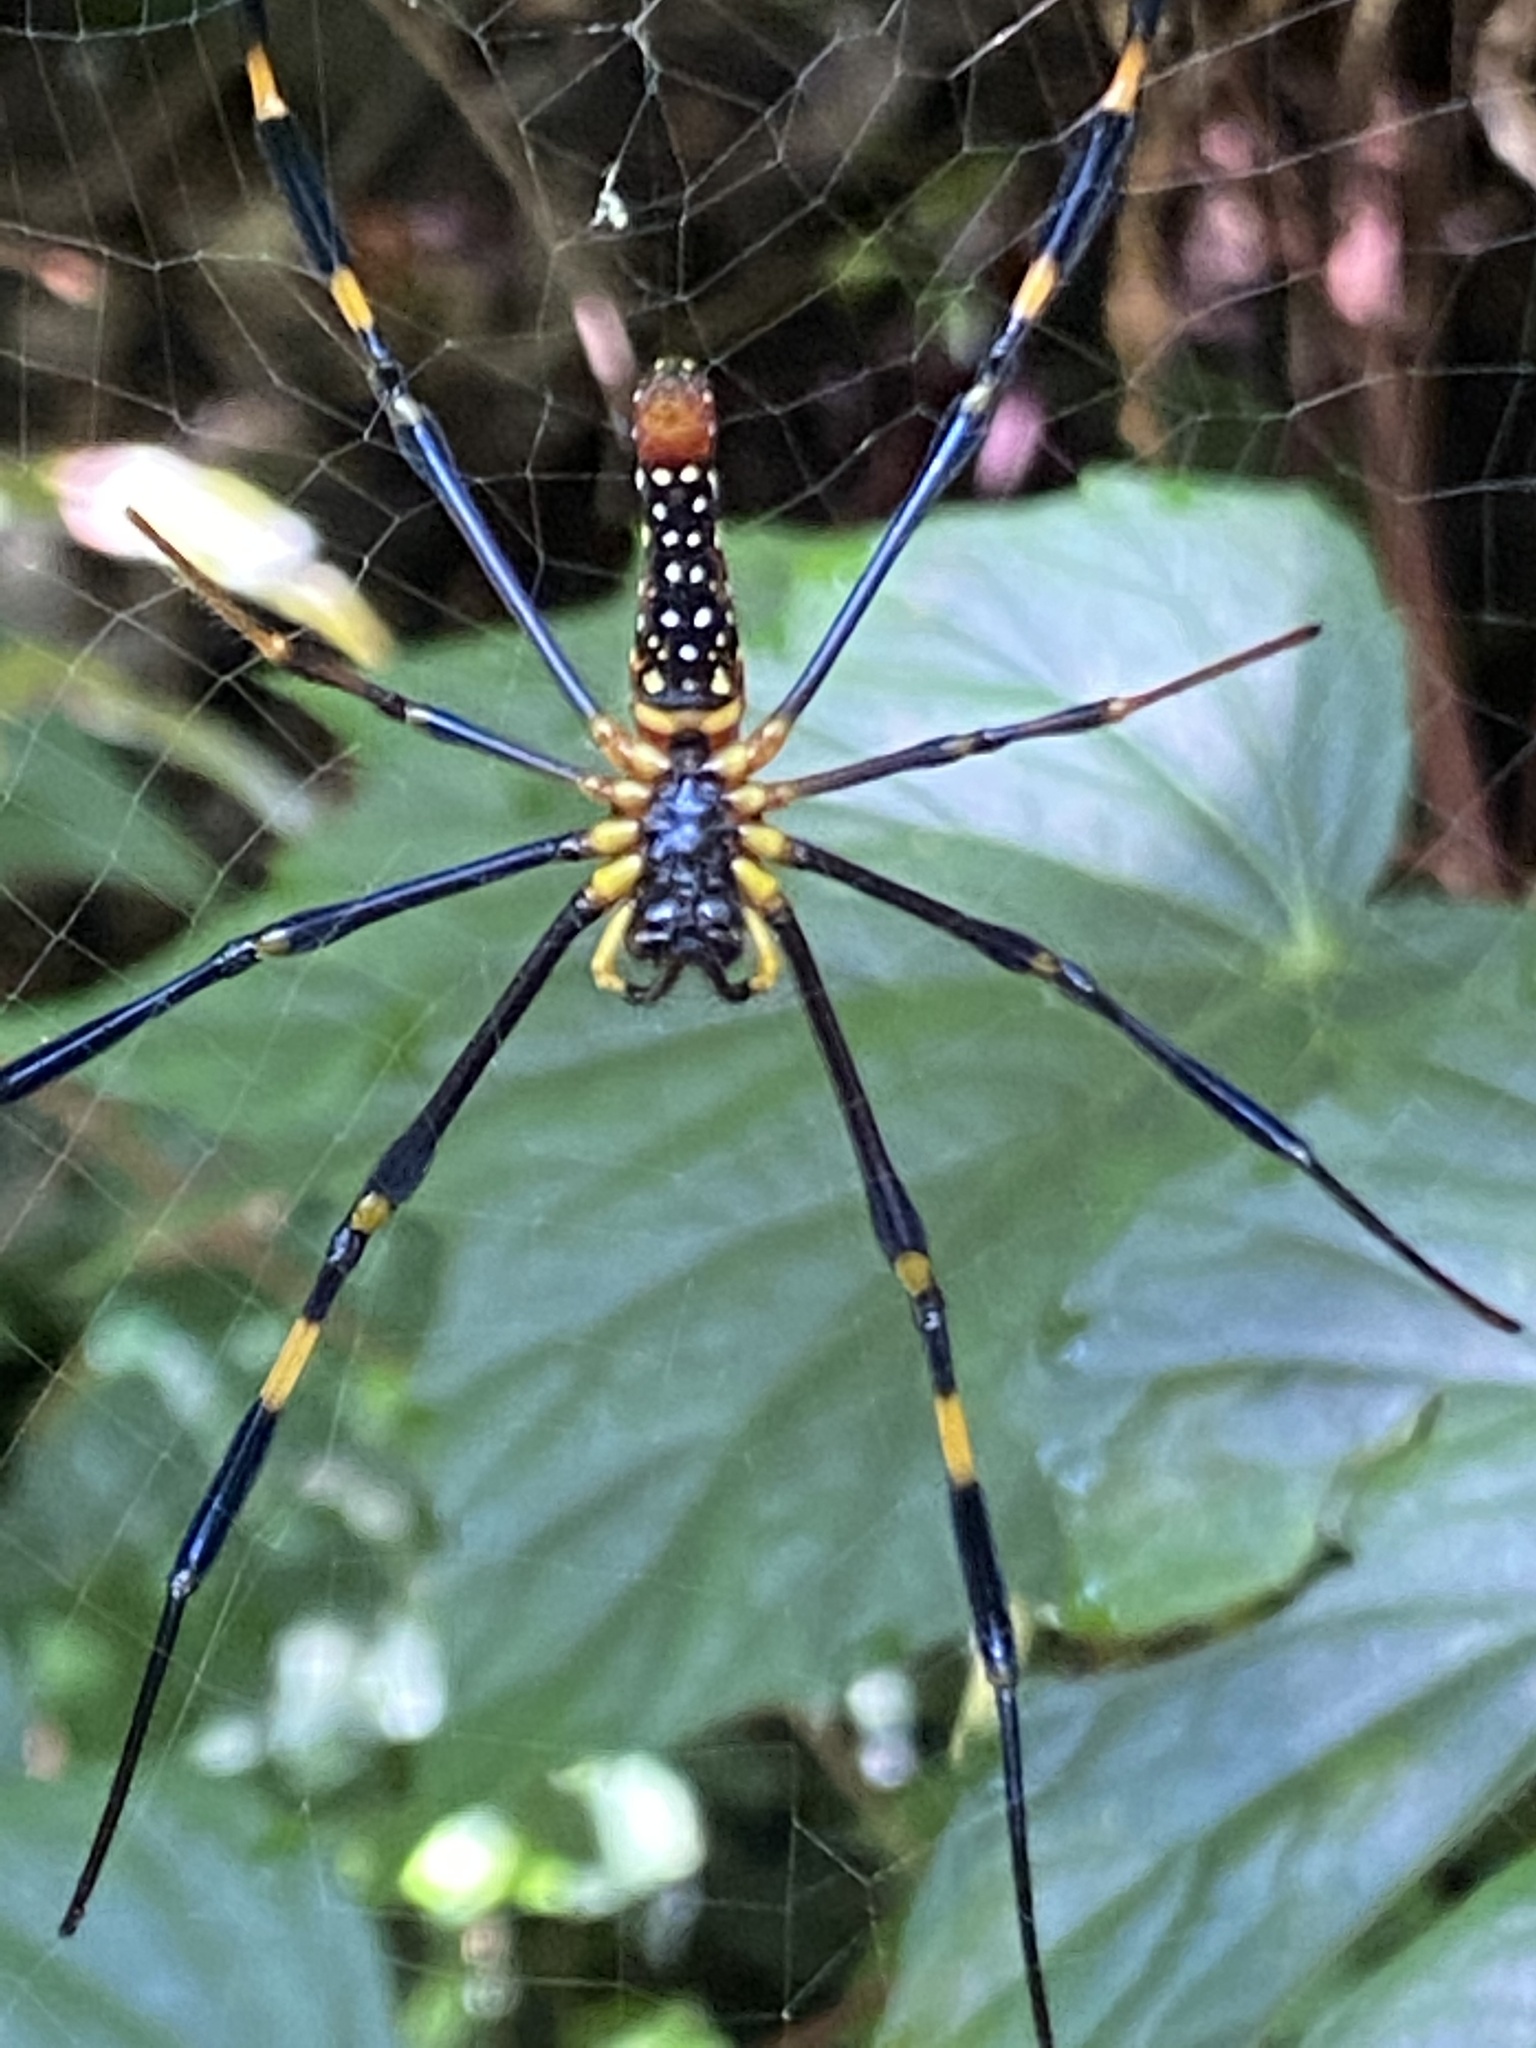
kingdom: Animalia
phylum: Arthropoda
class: Arachnida
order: Araneae
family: Araneidae
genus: Nephila
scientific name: Nephila pilipes
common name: Giant golden orb weaver
